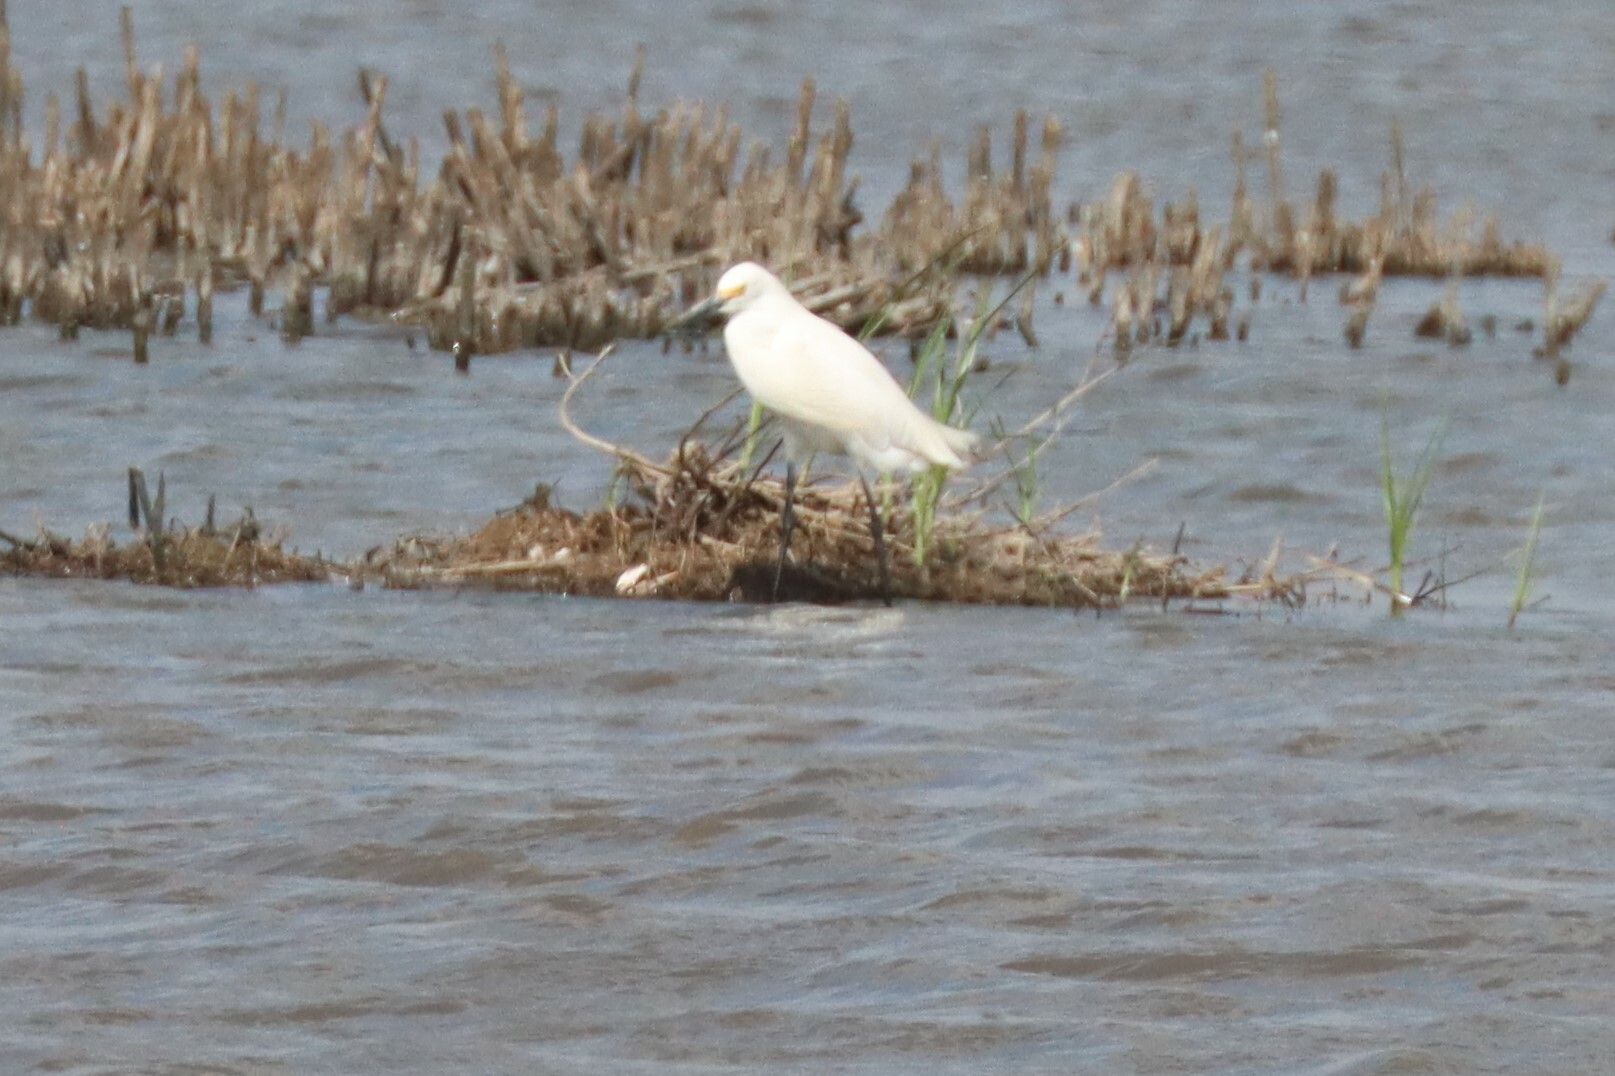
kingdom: Animalia
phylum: Chordata
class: Aves
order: Pelecaniformes
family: Ardeidae
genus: Egretta
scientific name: Egretta thula
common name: Snowy egret
